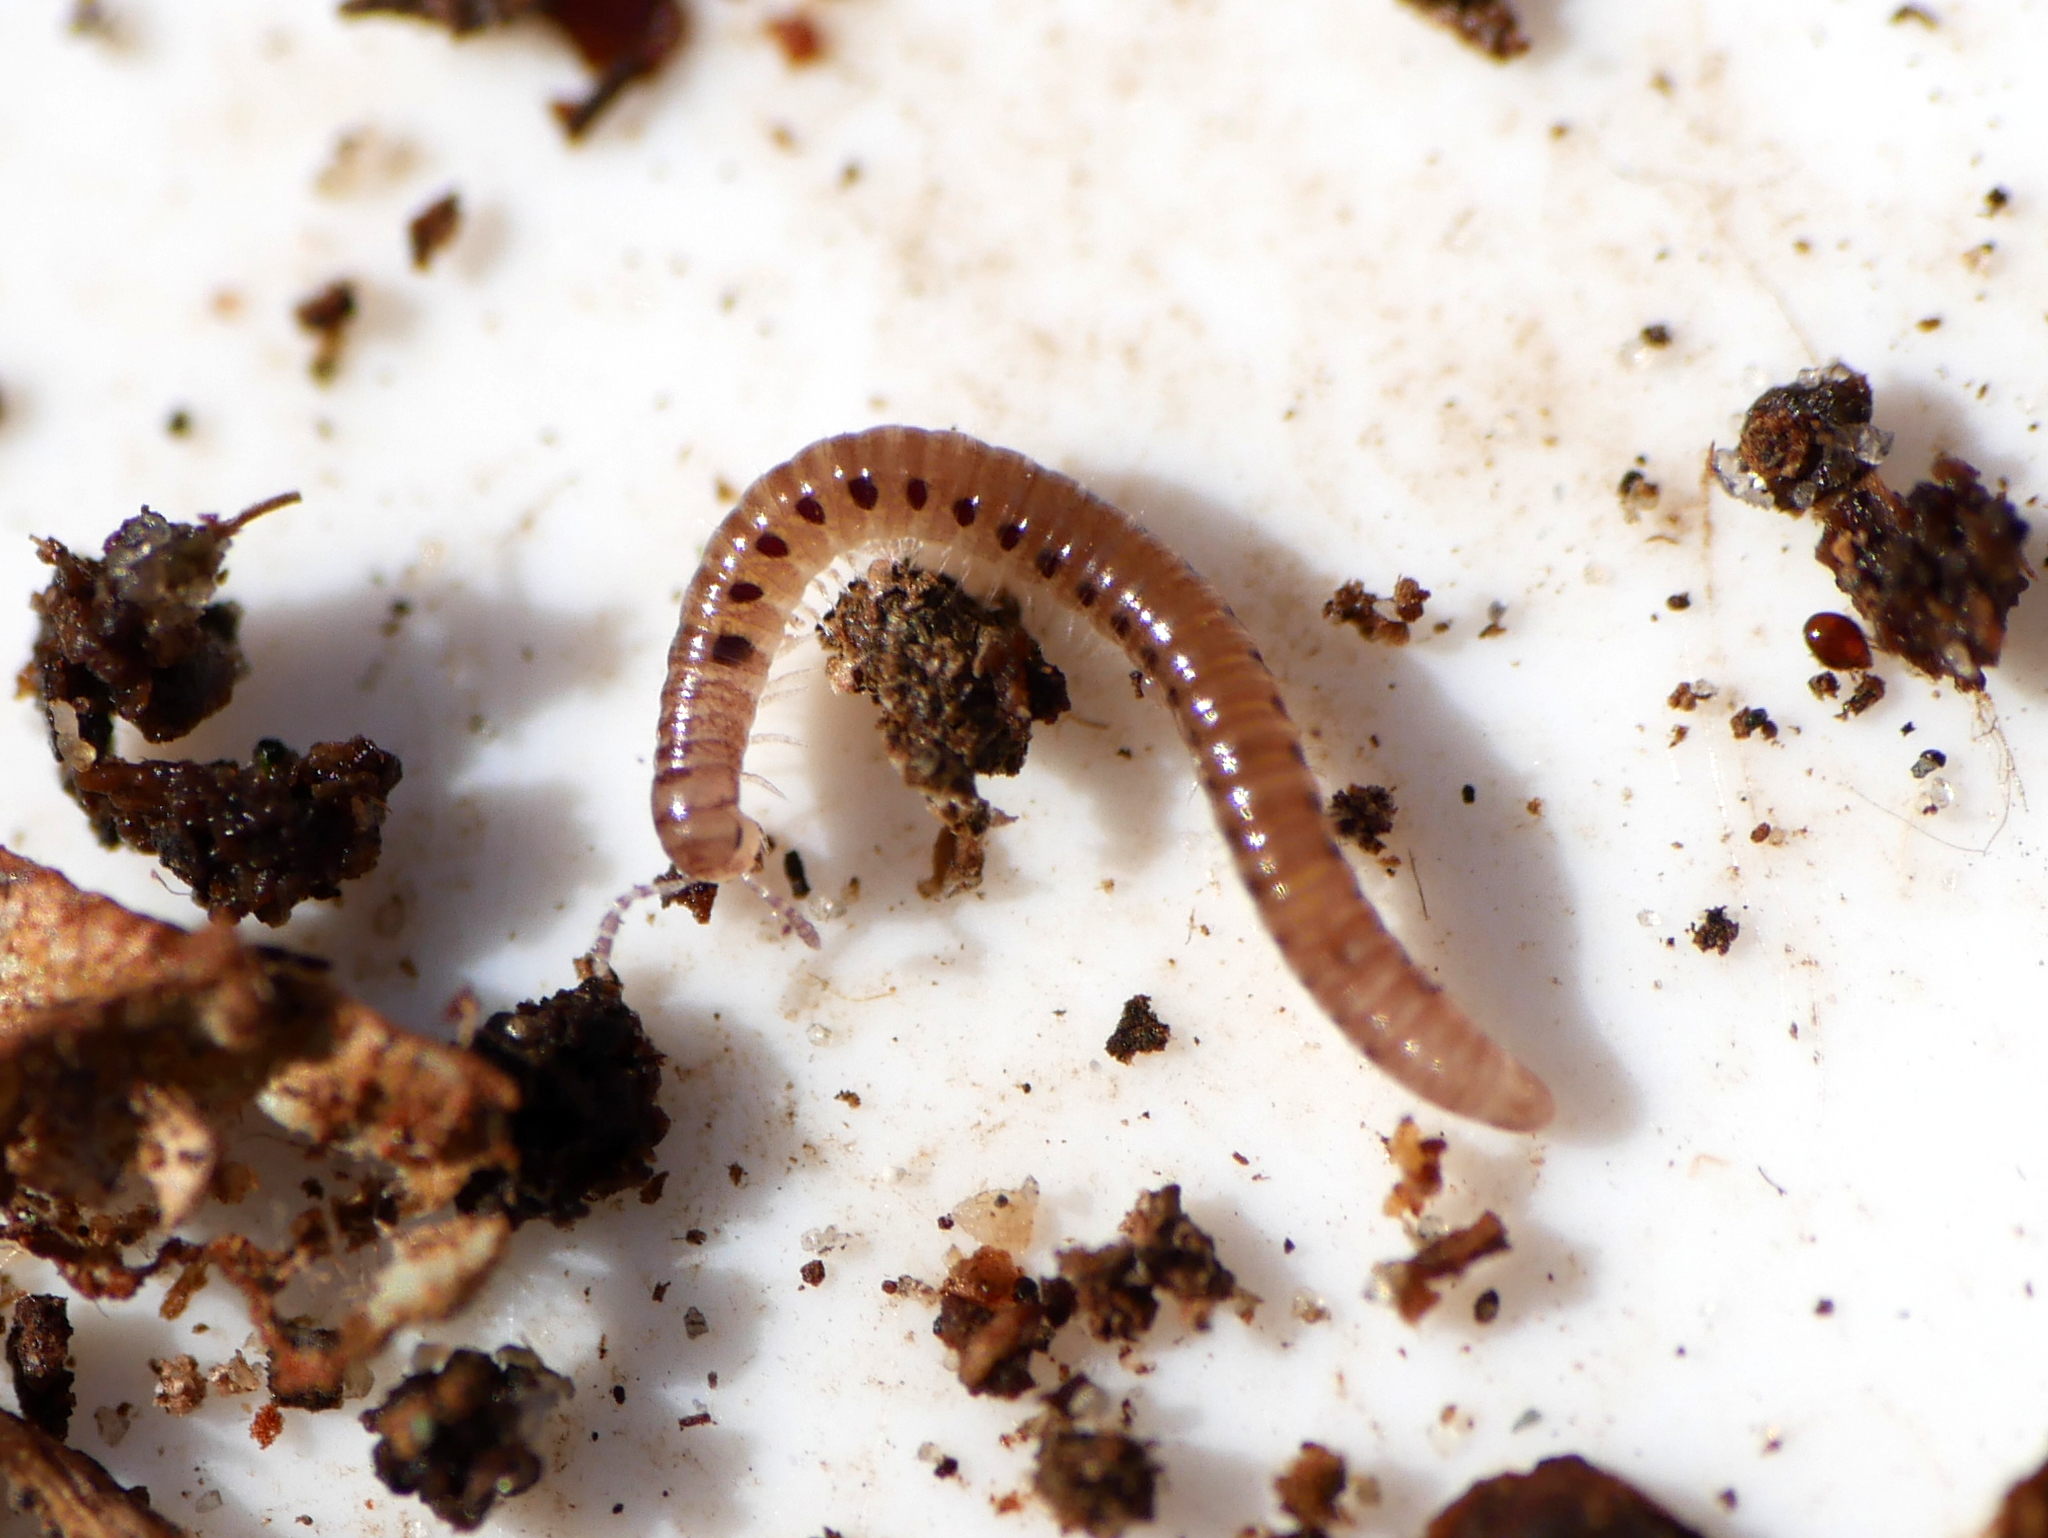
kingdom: Animalia
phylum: Arthropoda
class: Diplopoda
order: Julida
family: Blaniulidae
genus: Proteroiulus
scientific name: Proteroiulus fuscus
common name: Millipede
